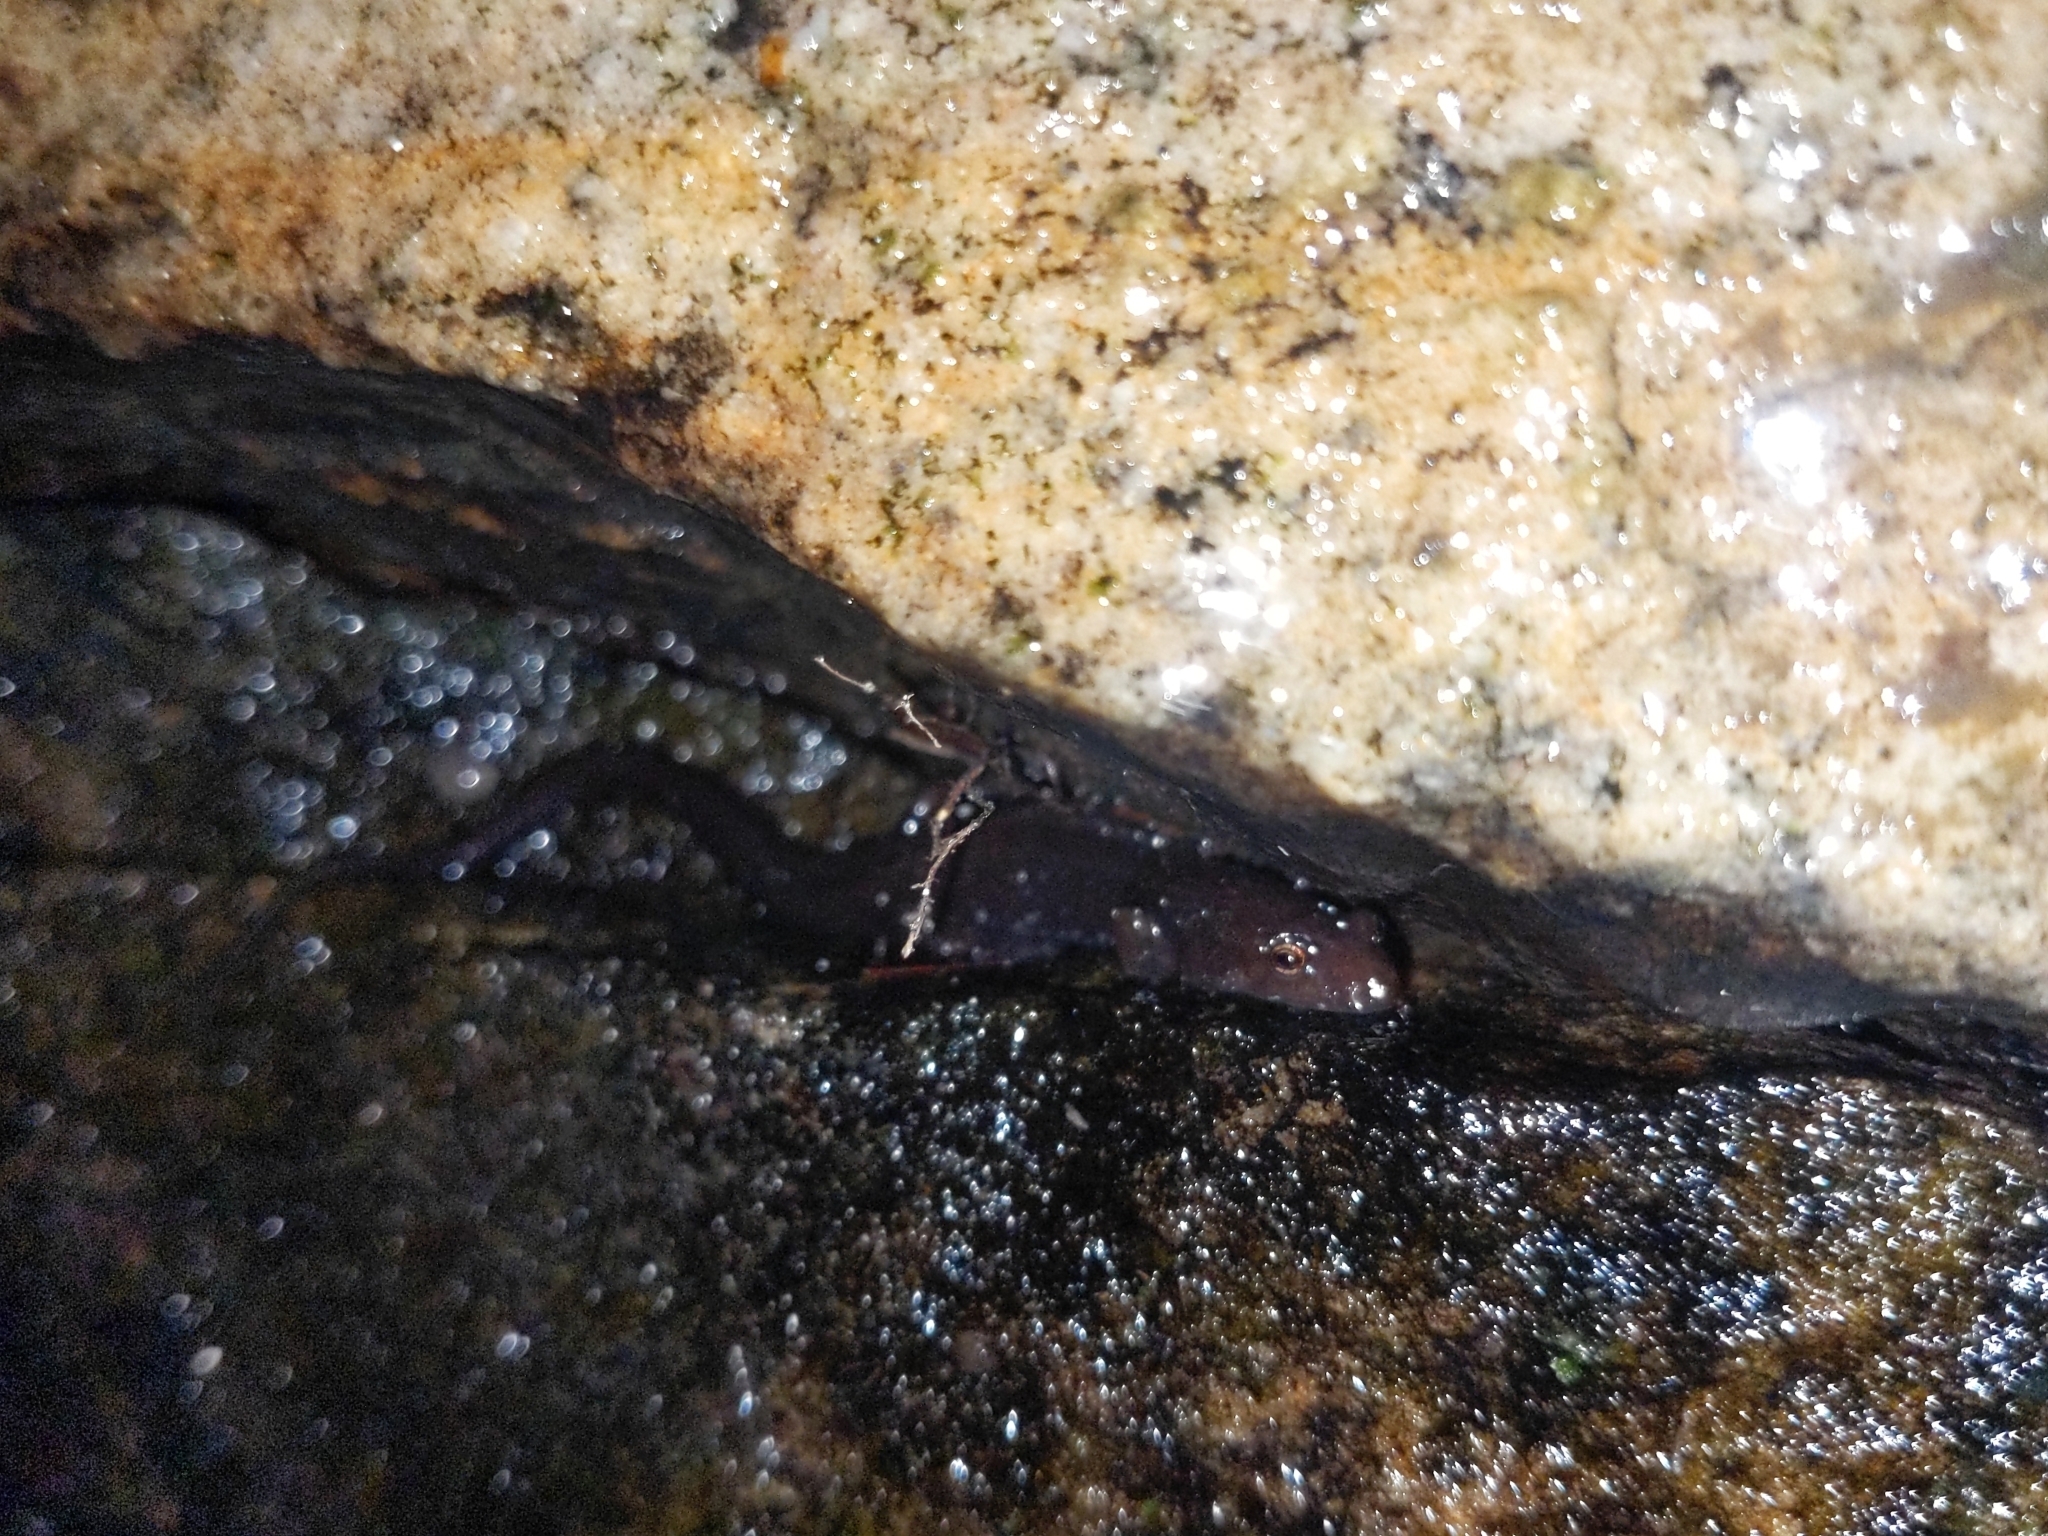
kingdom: Animalia
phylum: Chordata
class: Amphibia
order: Caudata
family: Plethodontidae
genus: Desmognathus
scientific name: Desmognathus ochrophaeus
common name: Allegheny mountain dusky salamander
